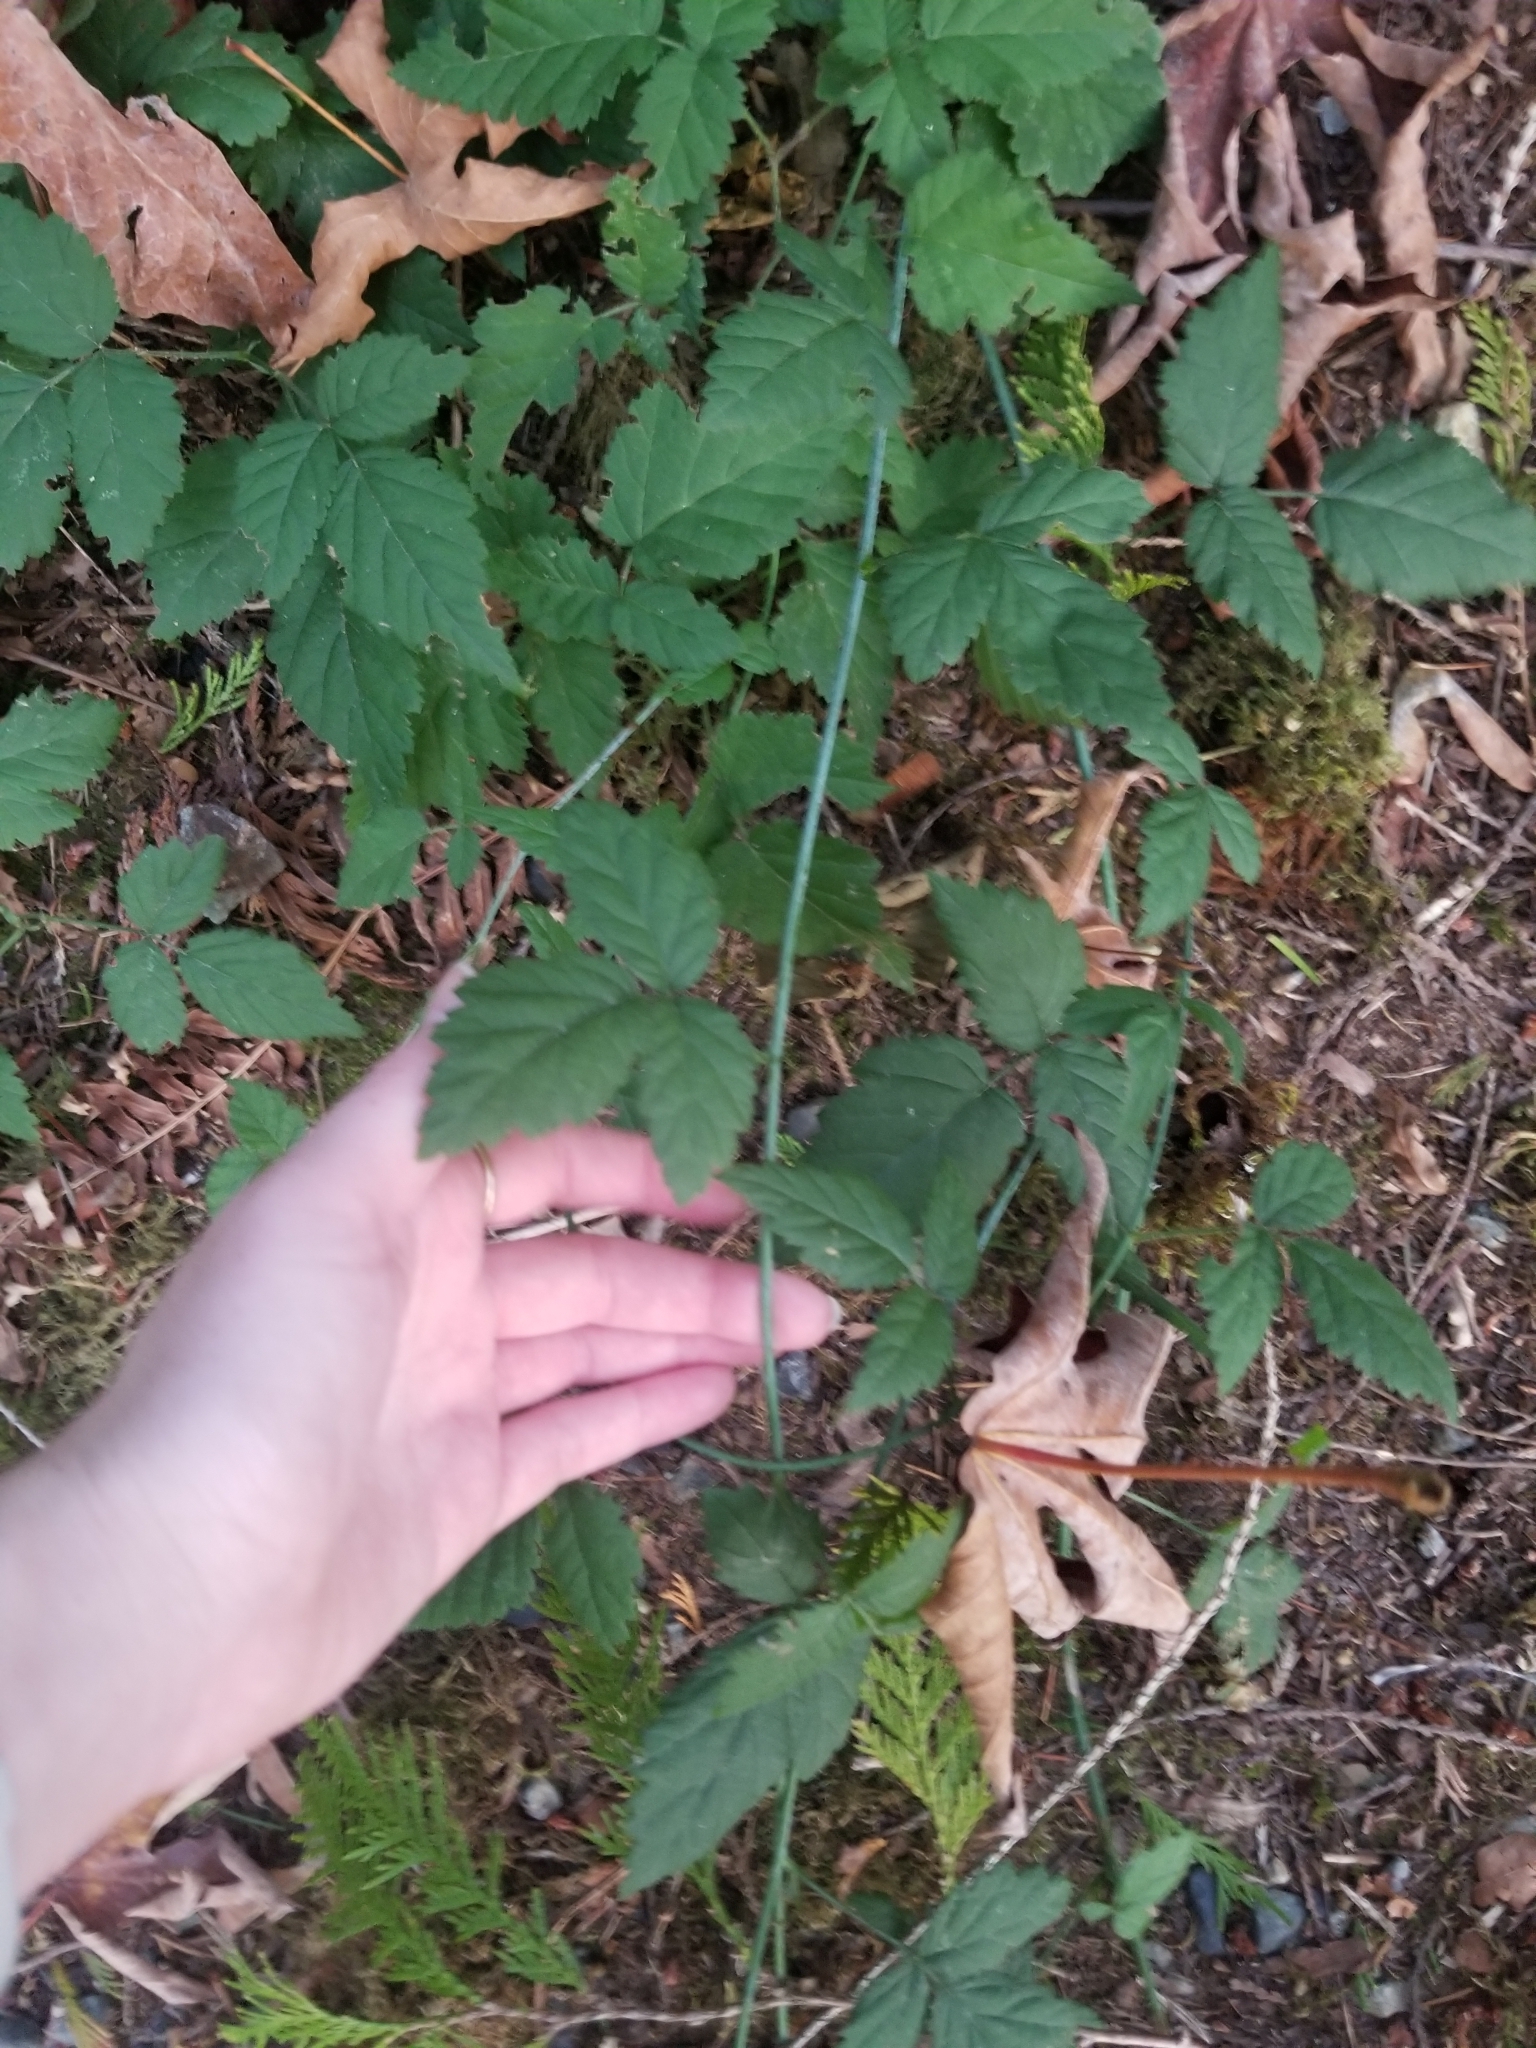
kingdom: Plantae
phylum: Tracheophyta
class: Magnoliopsida
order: Rosales
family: Rosaceae
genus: Rubus
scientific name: Rubus ursinus
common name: Pacific blackberry
